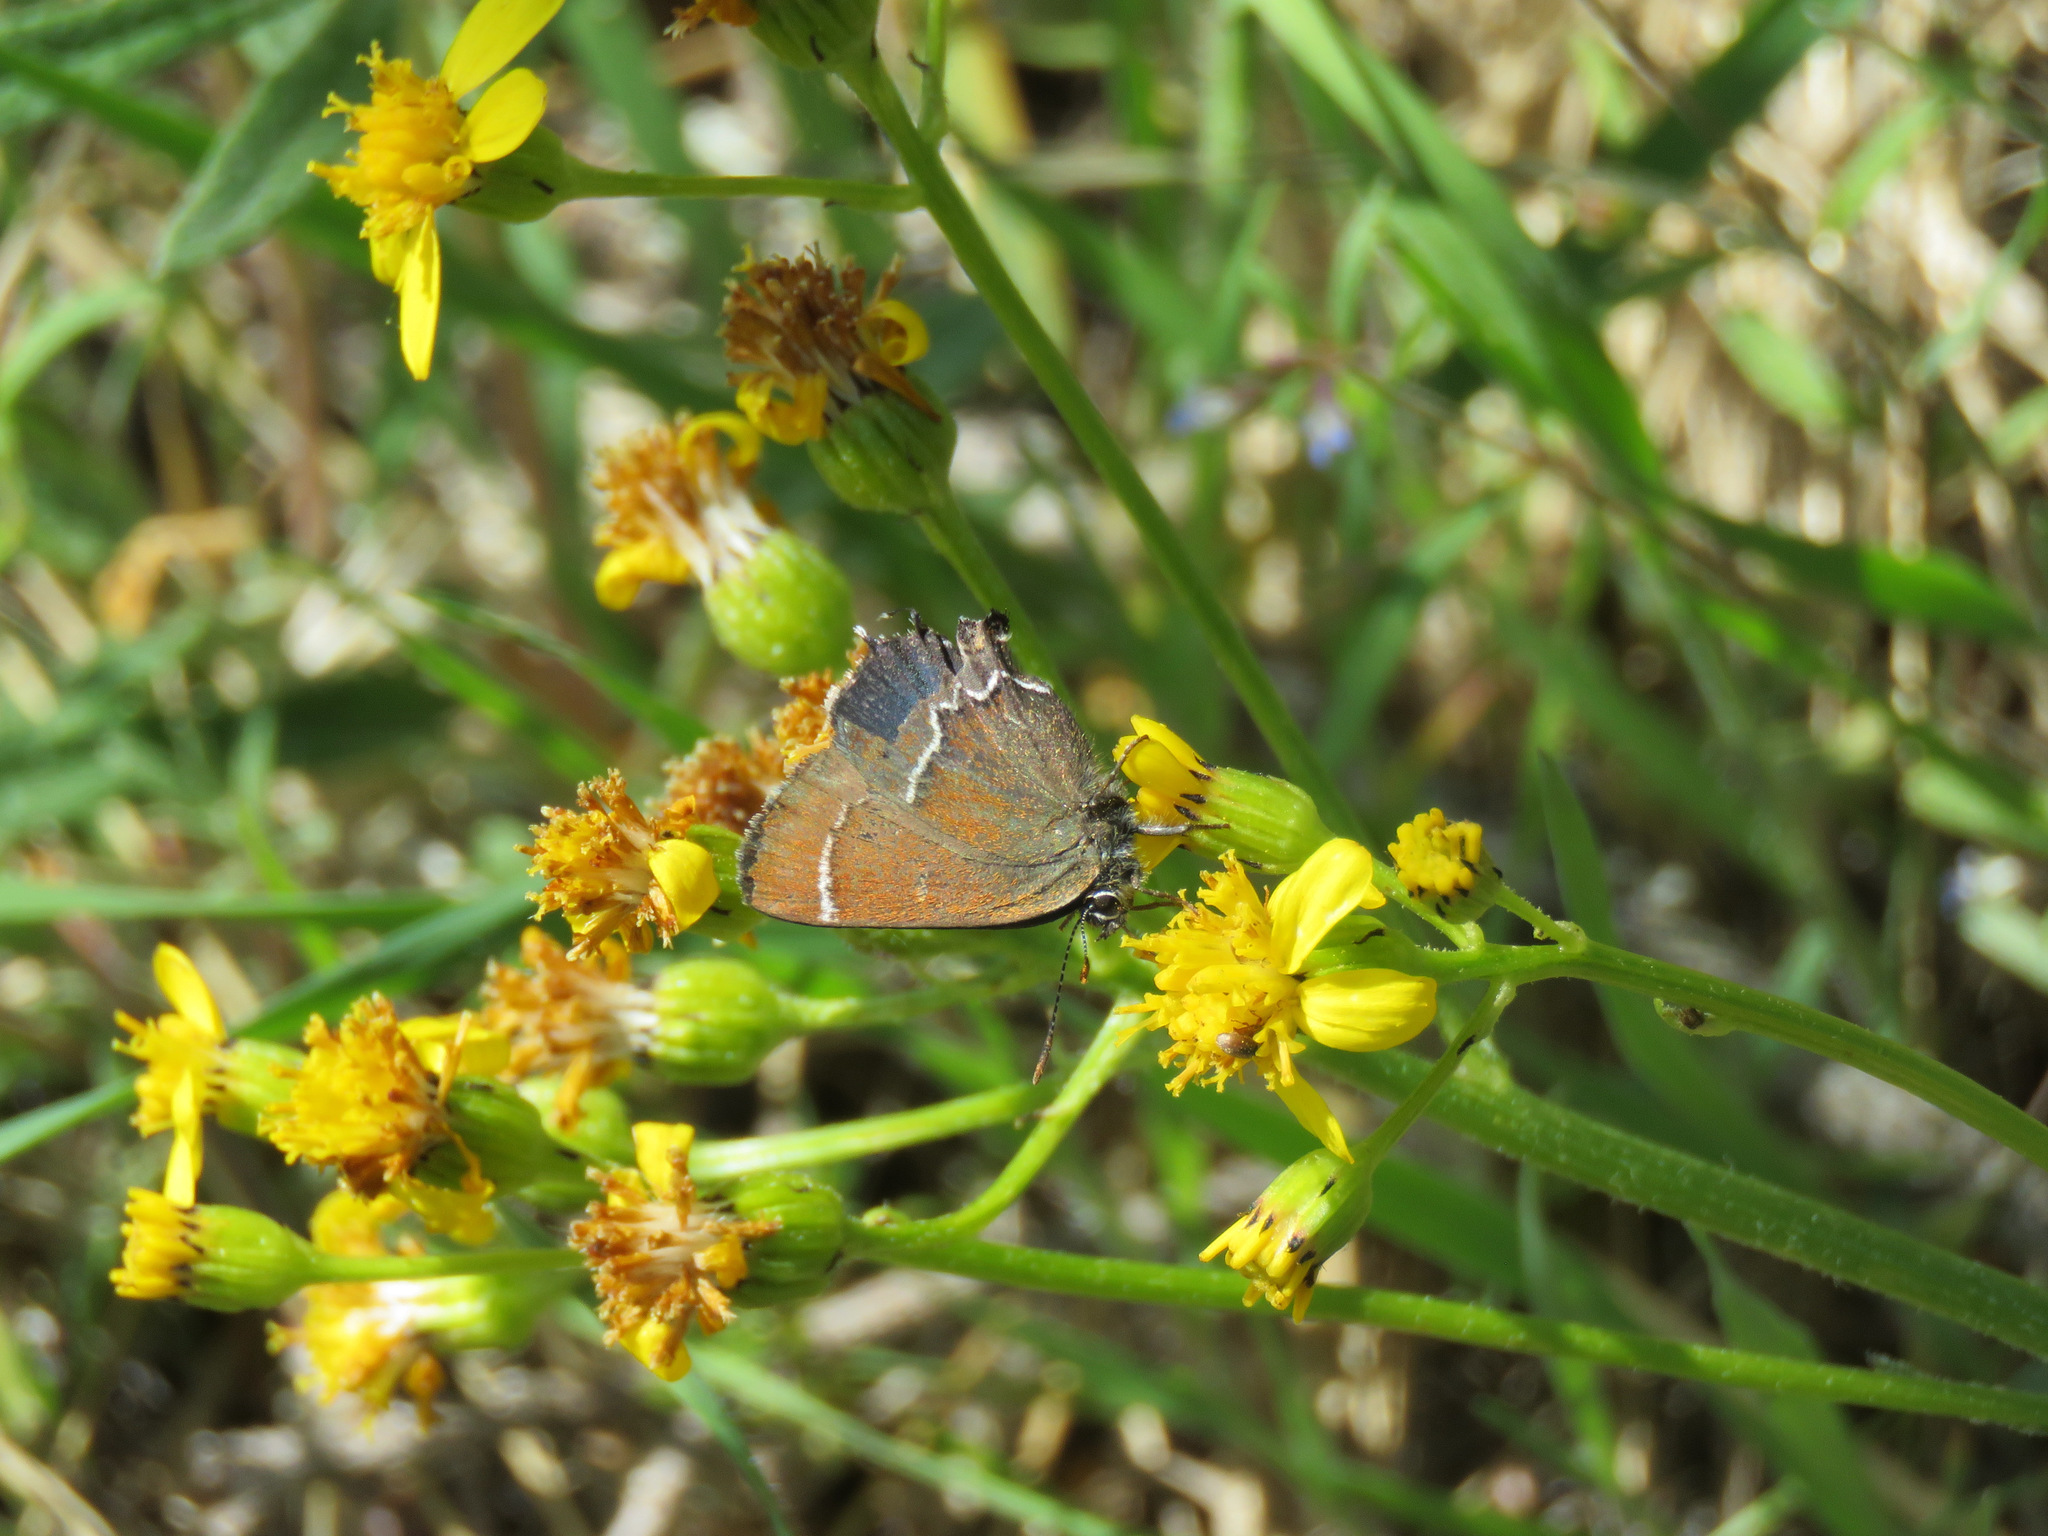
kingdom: Animalia
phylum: Arthropoda
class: Insecta
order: Lepidoptera
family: Lycaenidae
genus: Mitoura
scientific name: Mitoura spinetorum
